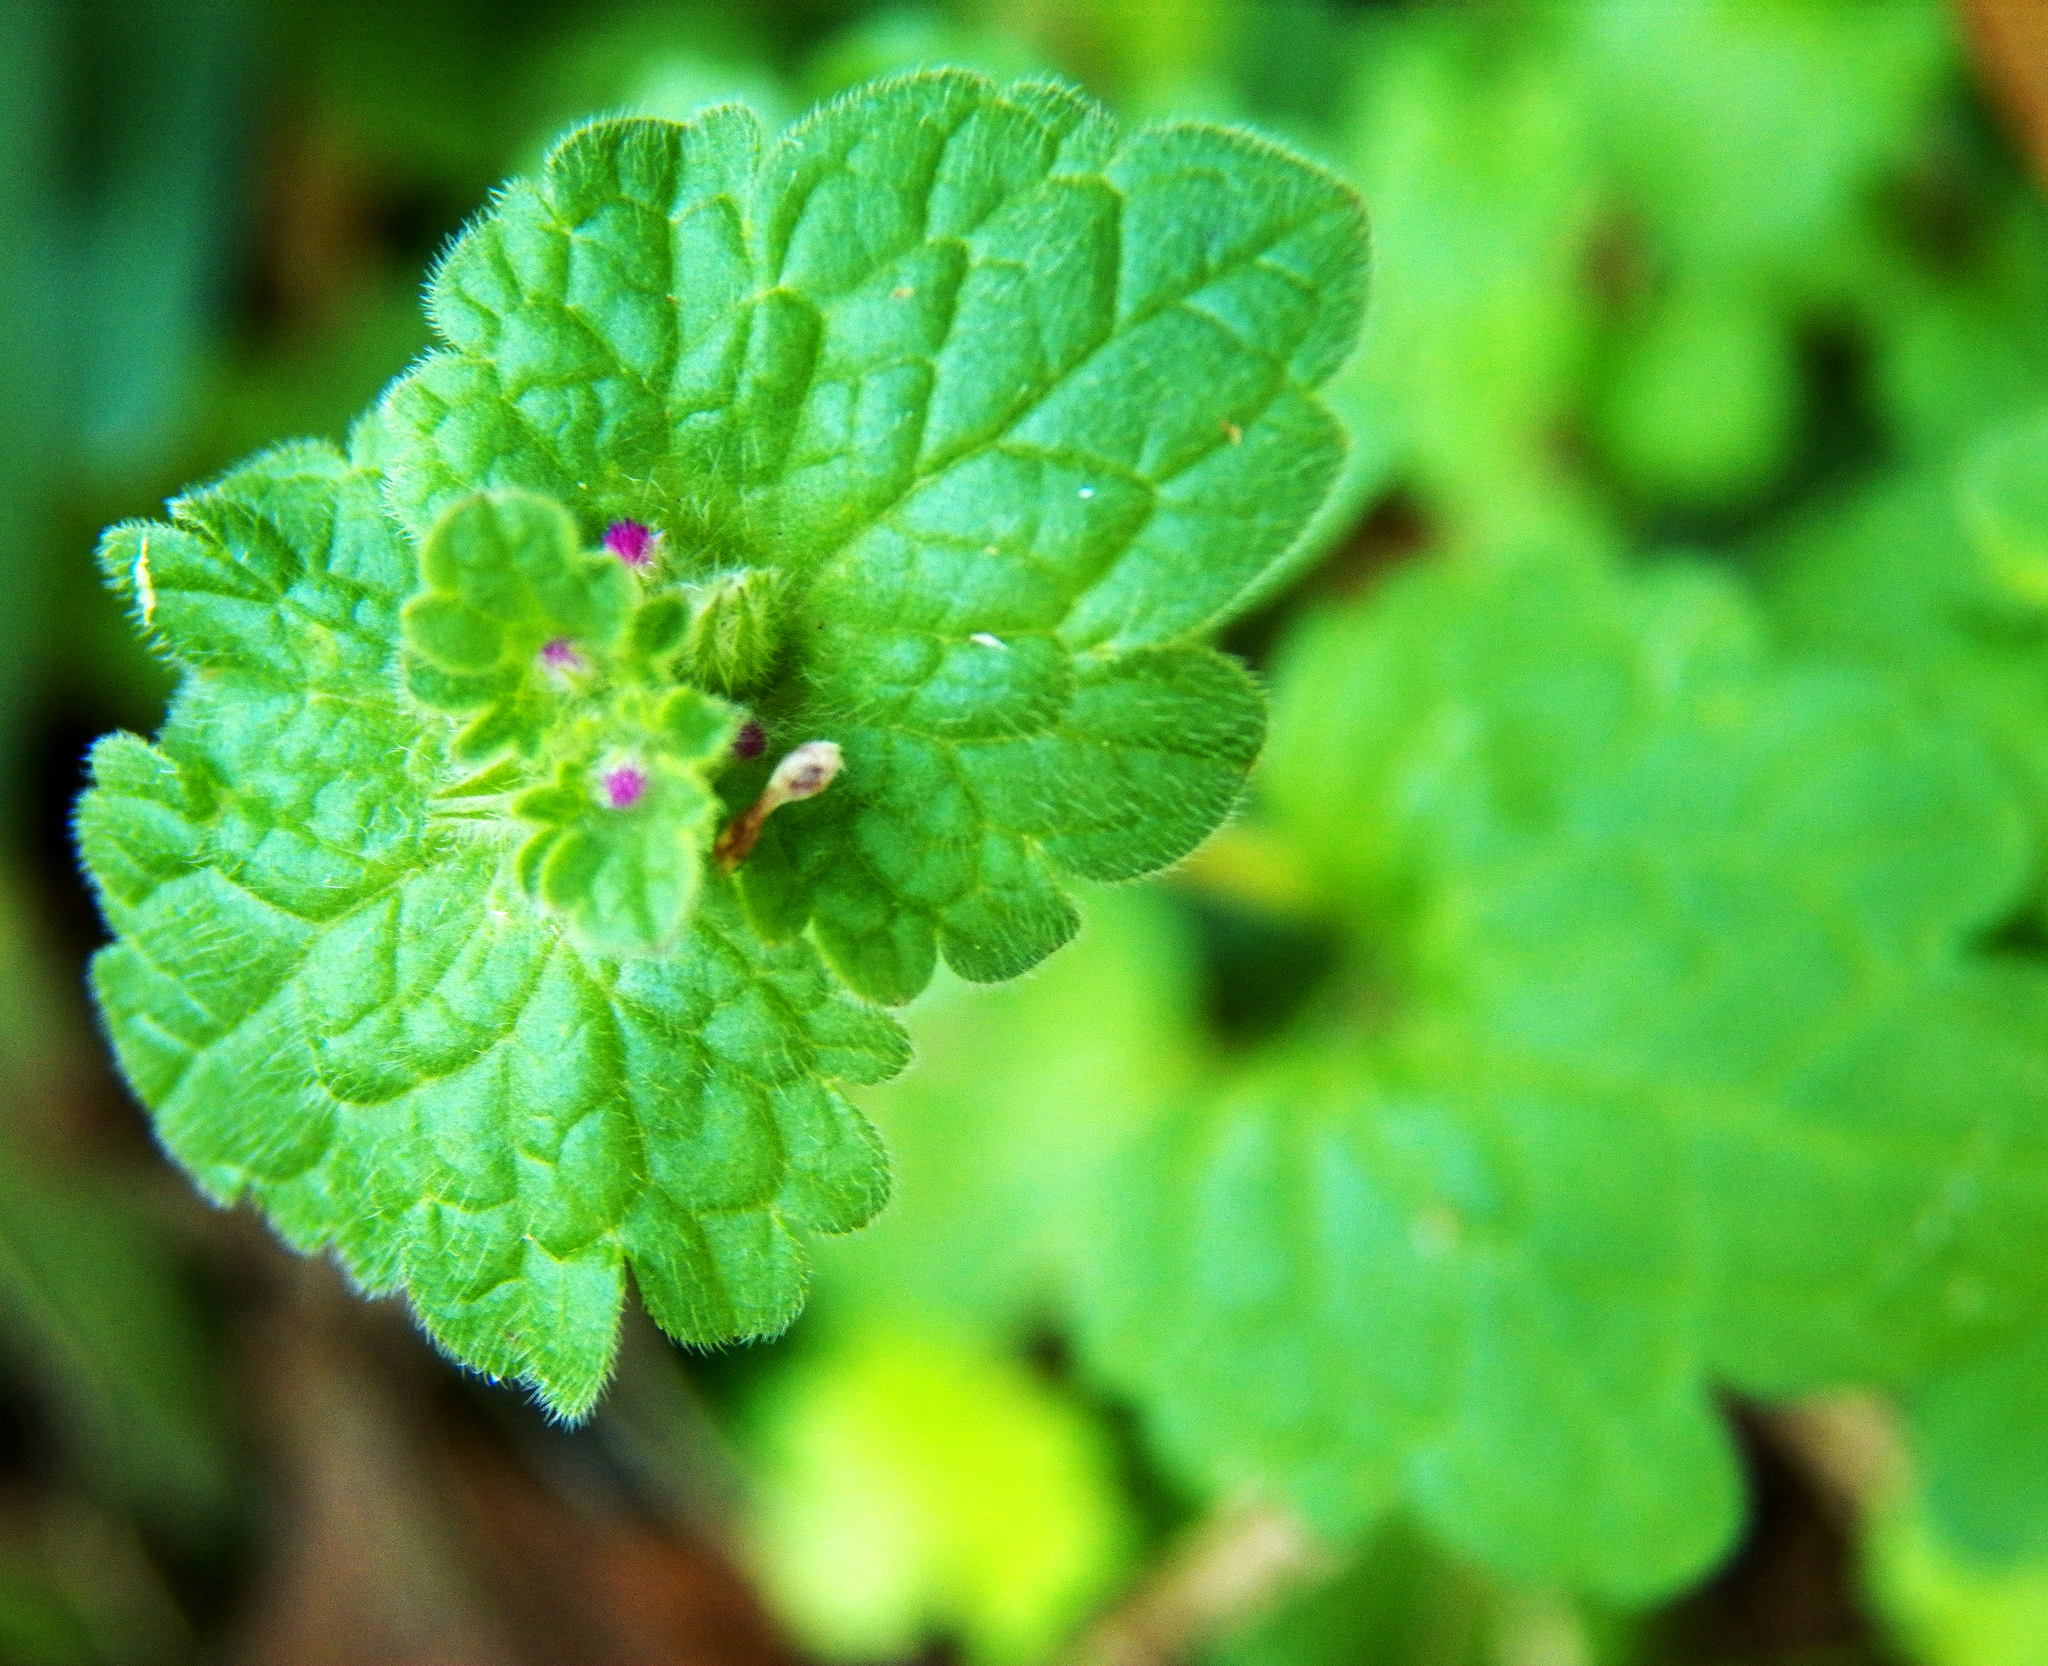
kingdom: Plantae
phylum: Tracheophyta
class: Magnoliopsida
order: Lamiales
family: Lamiaceae
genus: Lamium
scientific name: Lamium amplexicaule
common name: Henbit dead-nettle
